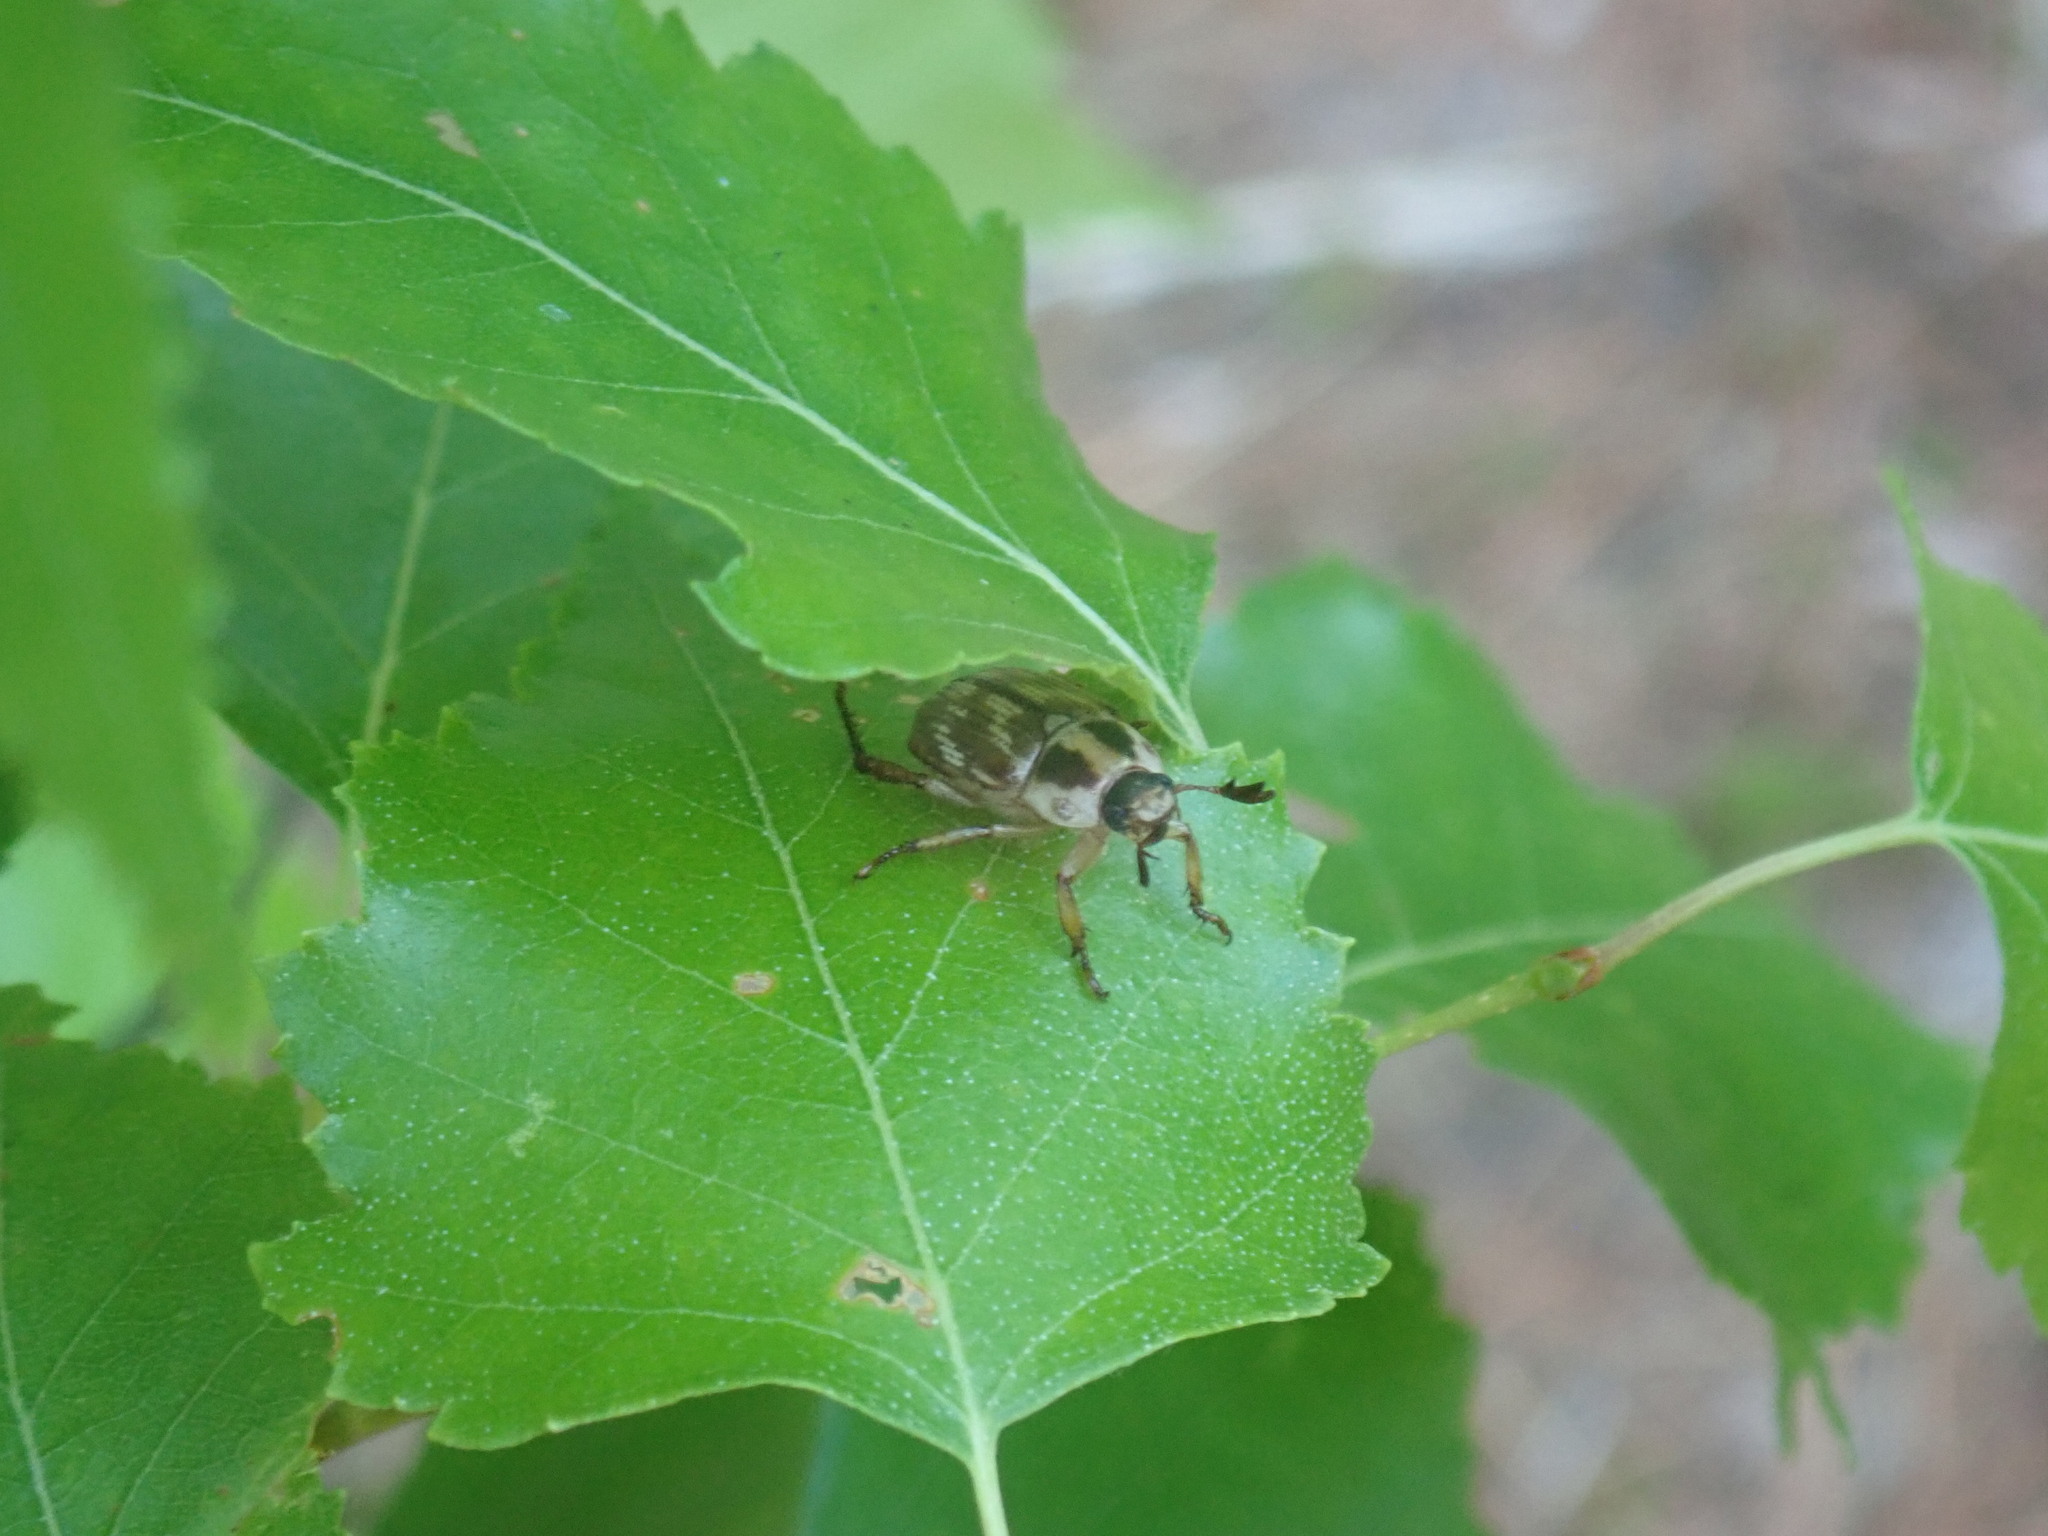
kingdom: Animalia
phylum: Arthropoda
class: Insecta
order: Coleoptera
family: Scarabaeidae
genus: Exomala
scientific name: Exomala orientalis
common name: Oriental beetle
